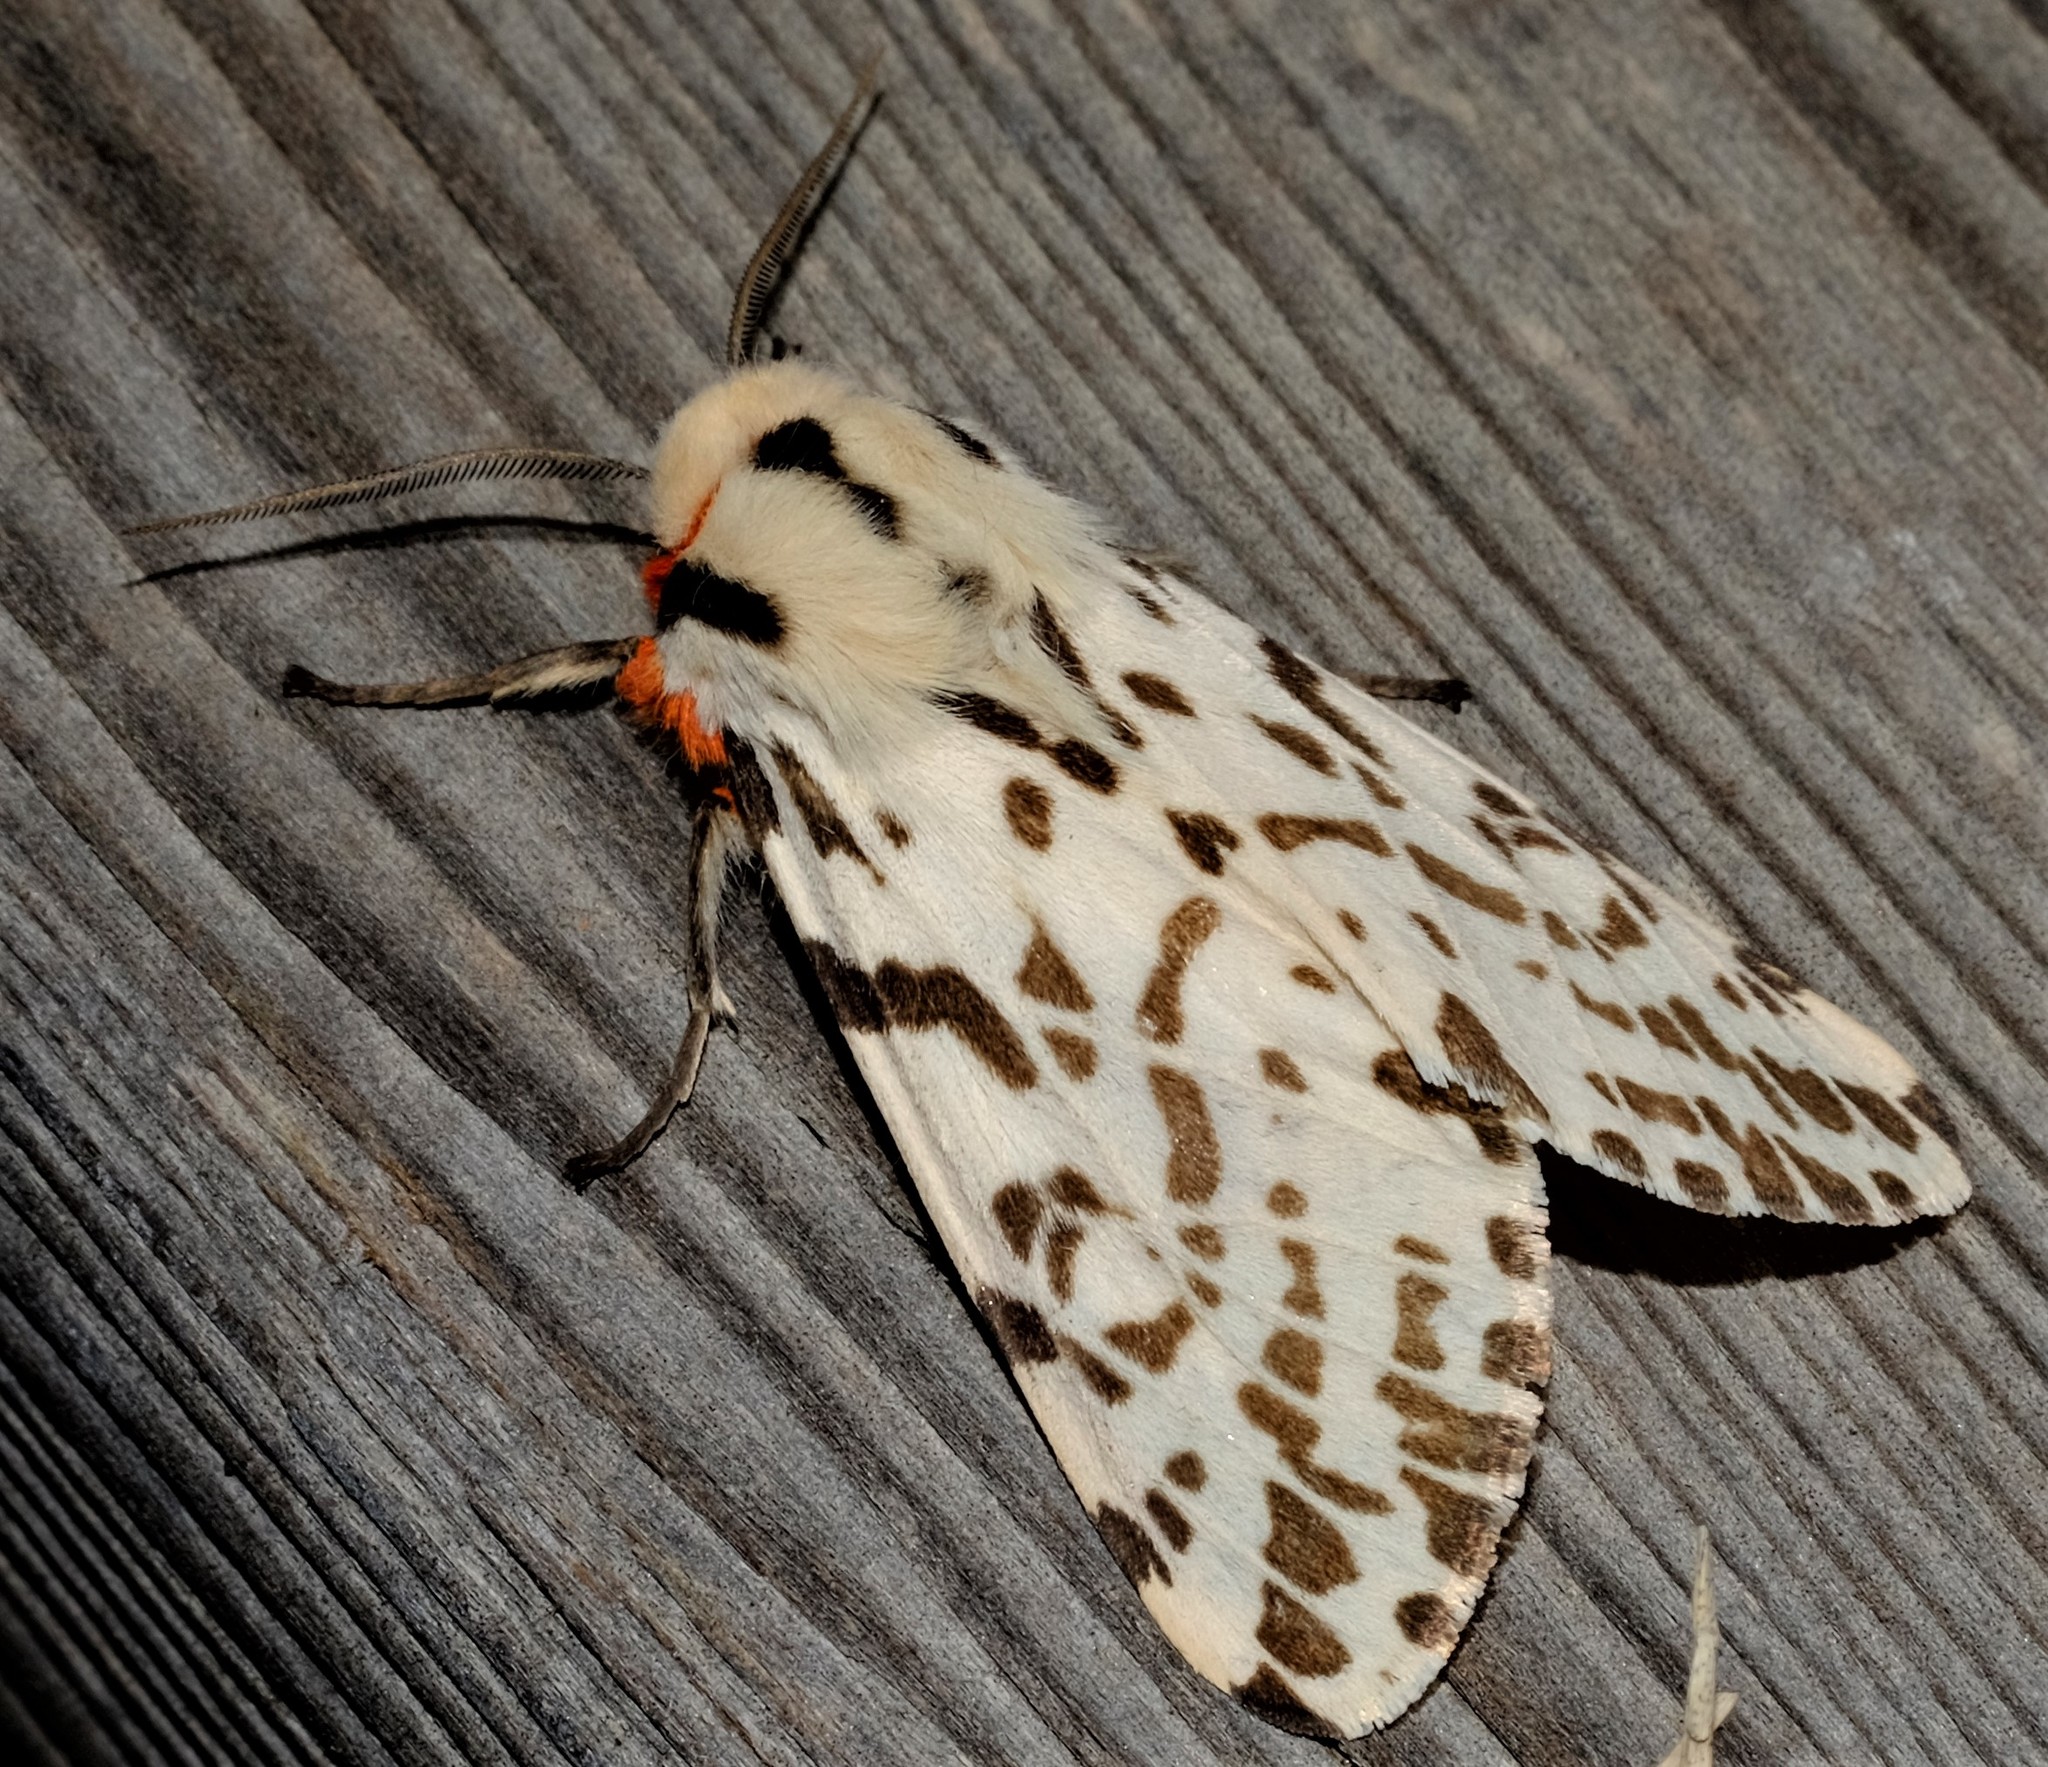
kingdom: Animalia
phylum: Arthropoda
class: Insecta
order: Lepidoptera
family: Erebidae
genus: Ardices
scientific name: Ardices glatignyi
